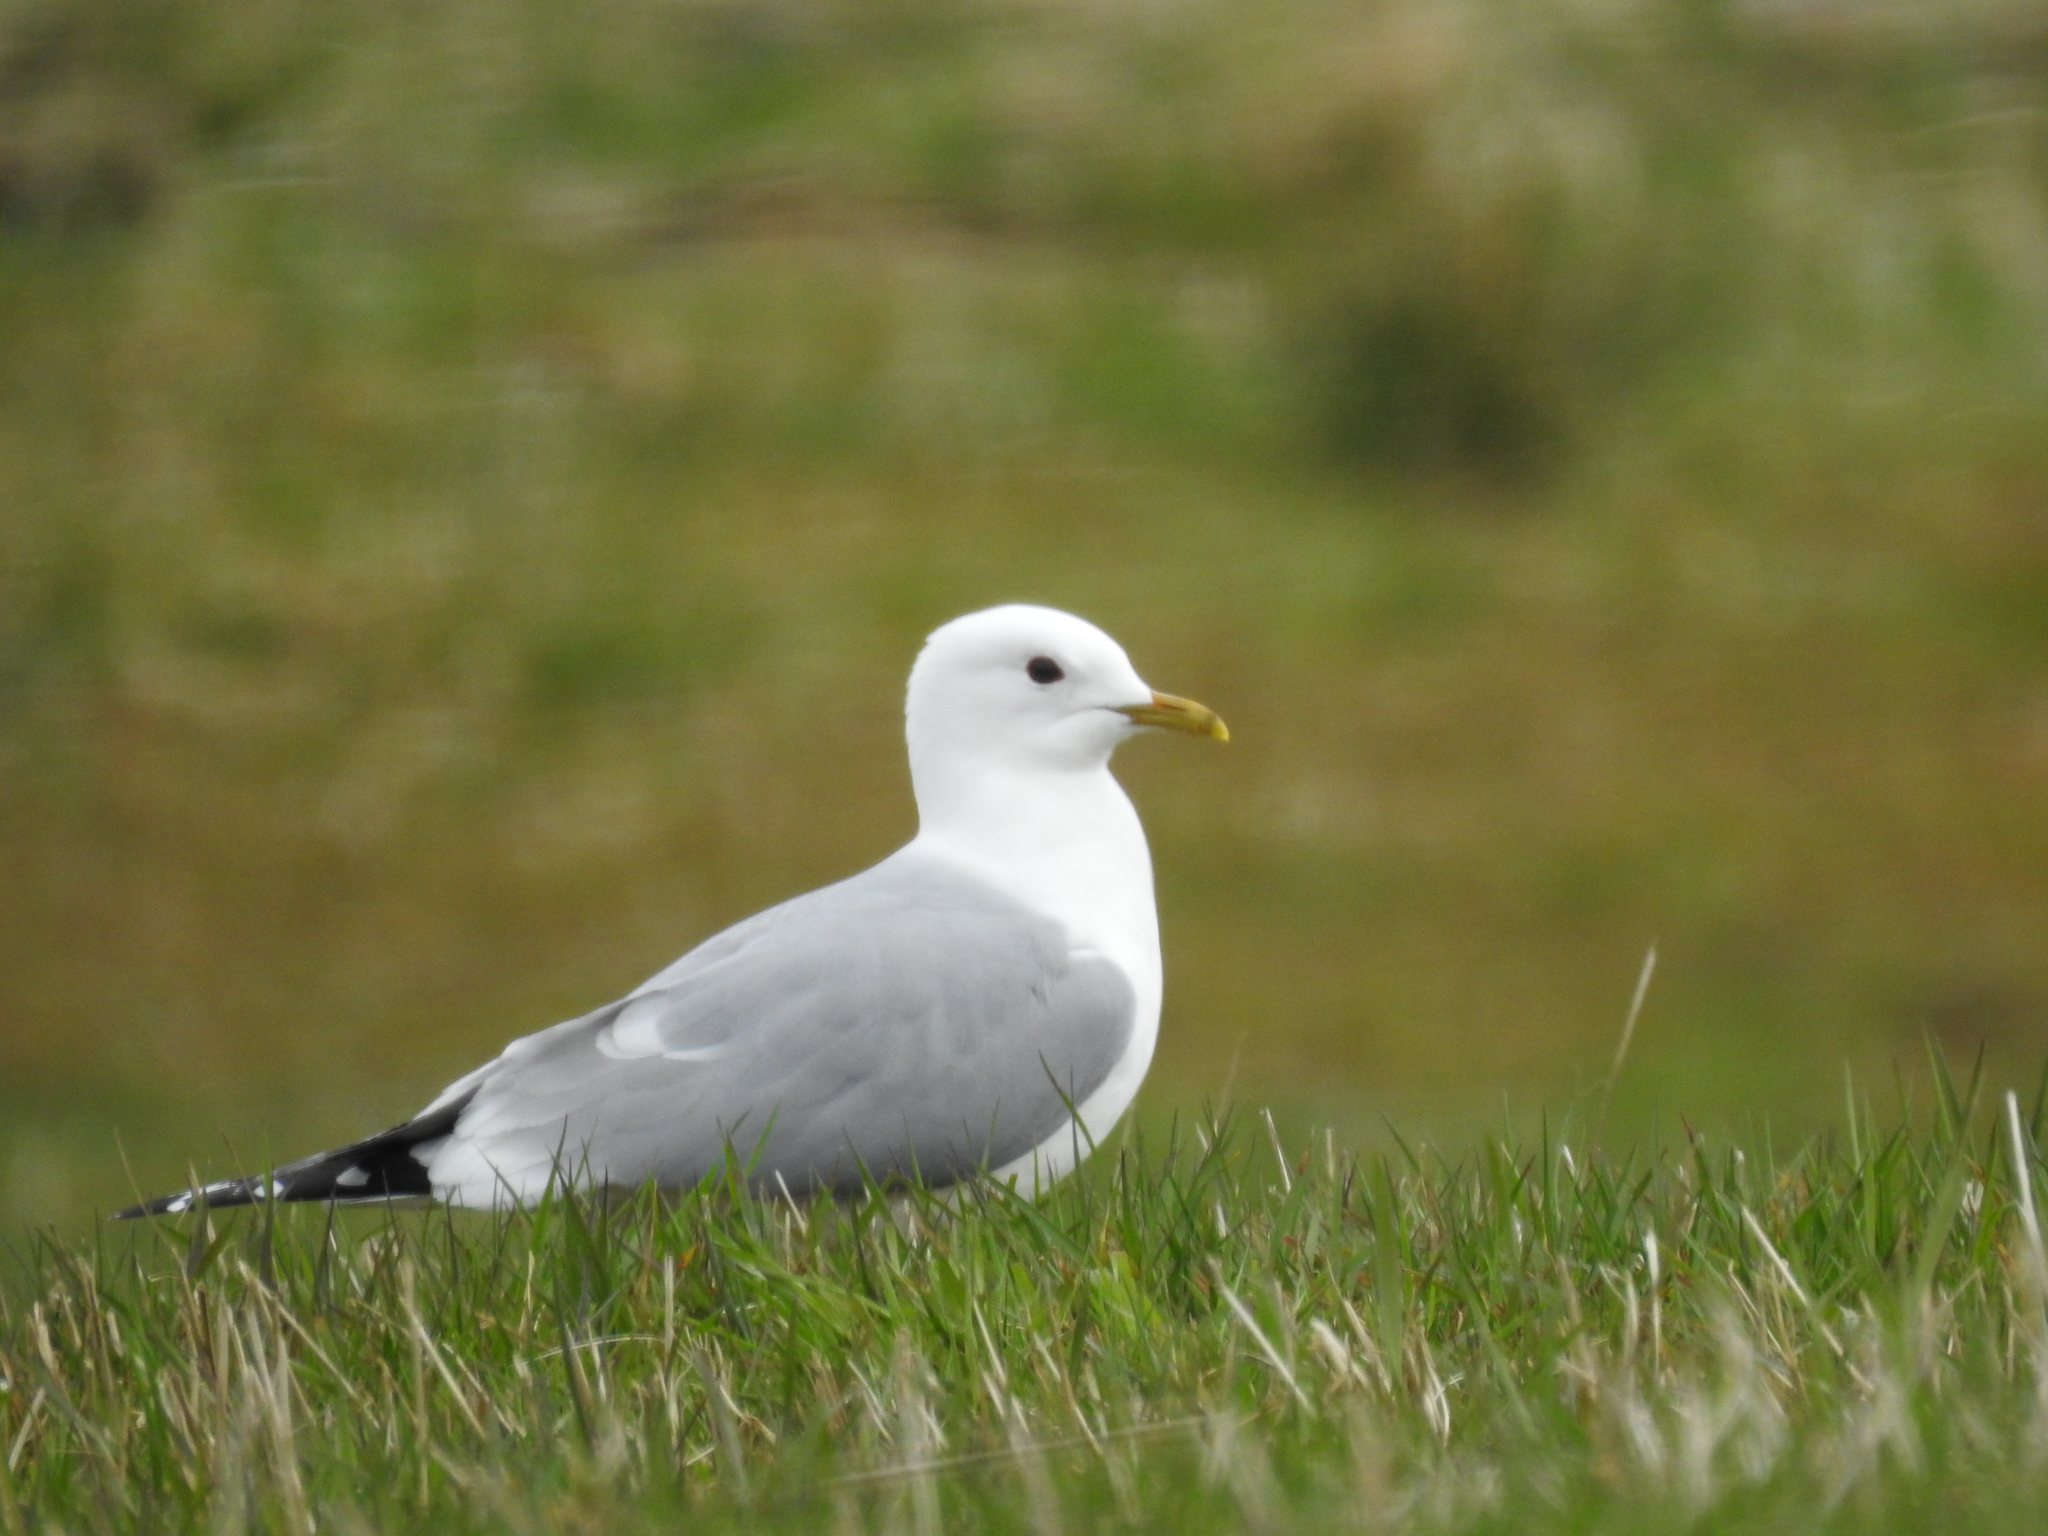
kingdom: Animalia
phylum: Chordata
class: Aves
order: Charadriiformes
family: Laridae
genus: Larus
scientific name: Larus canus
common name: Mew gull
